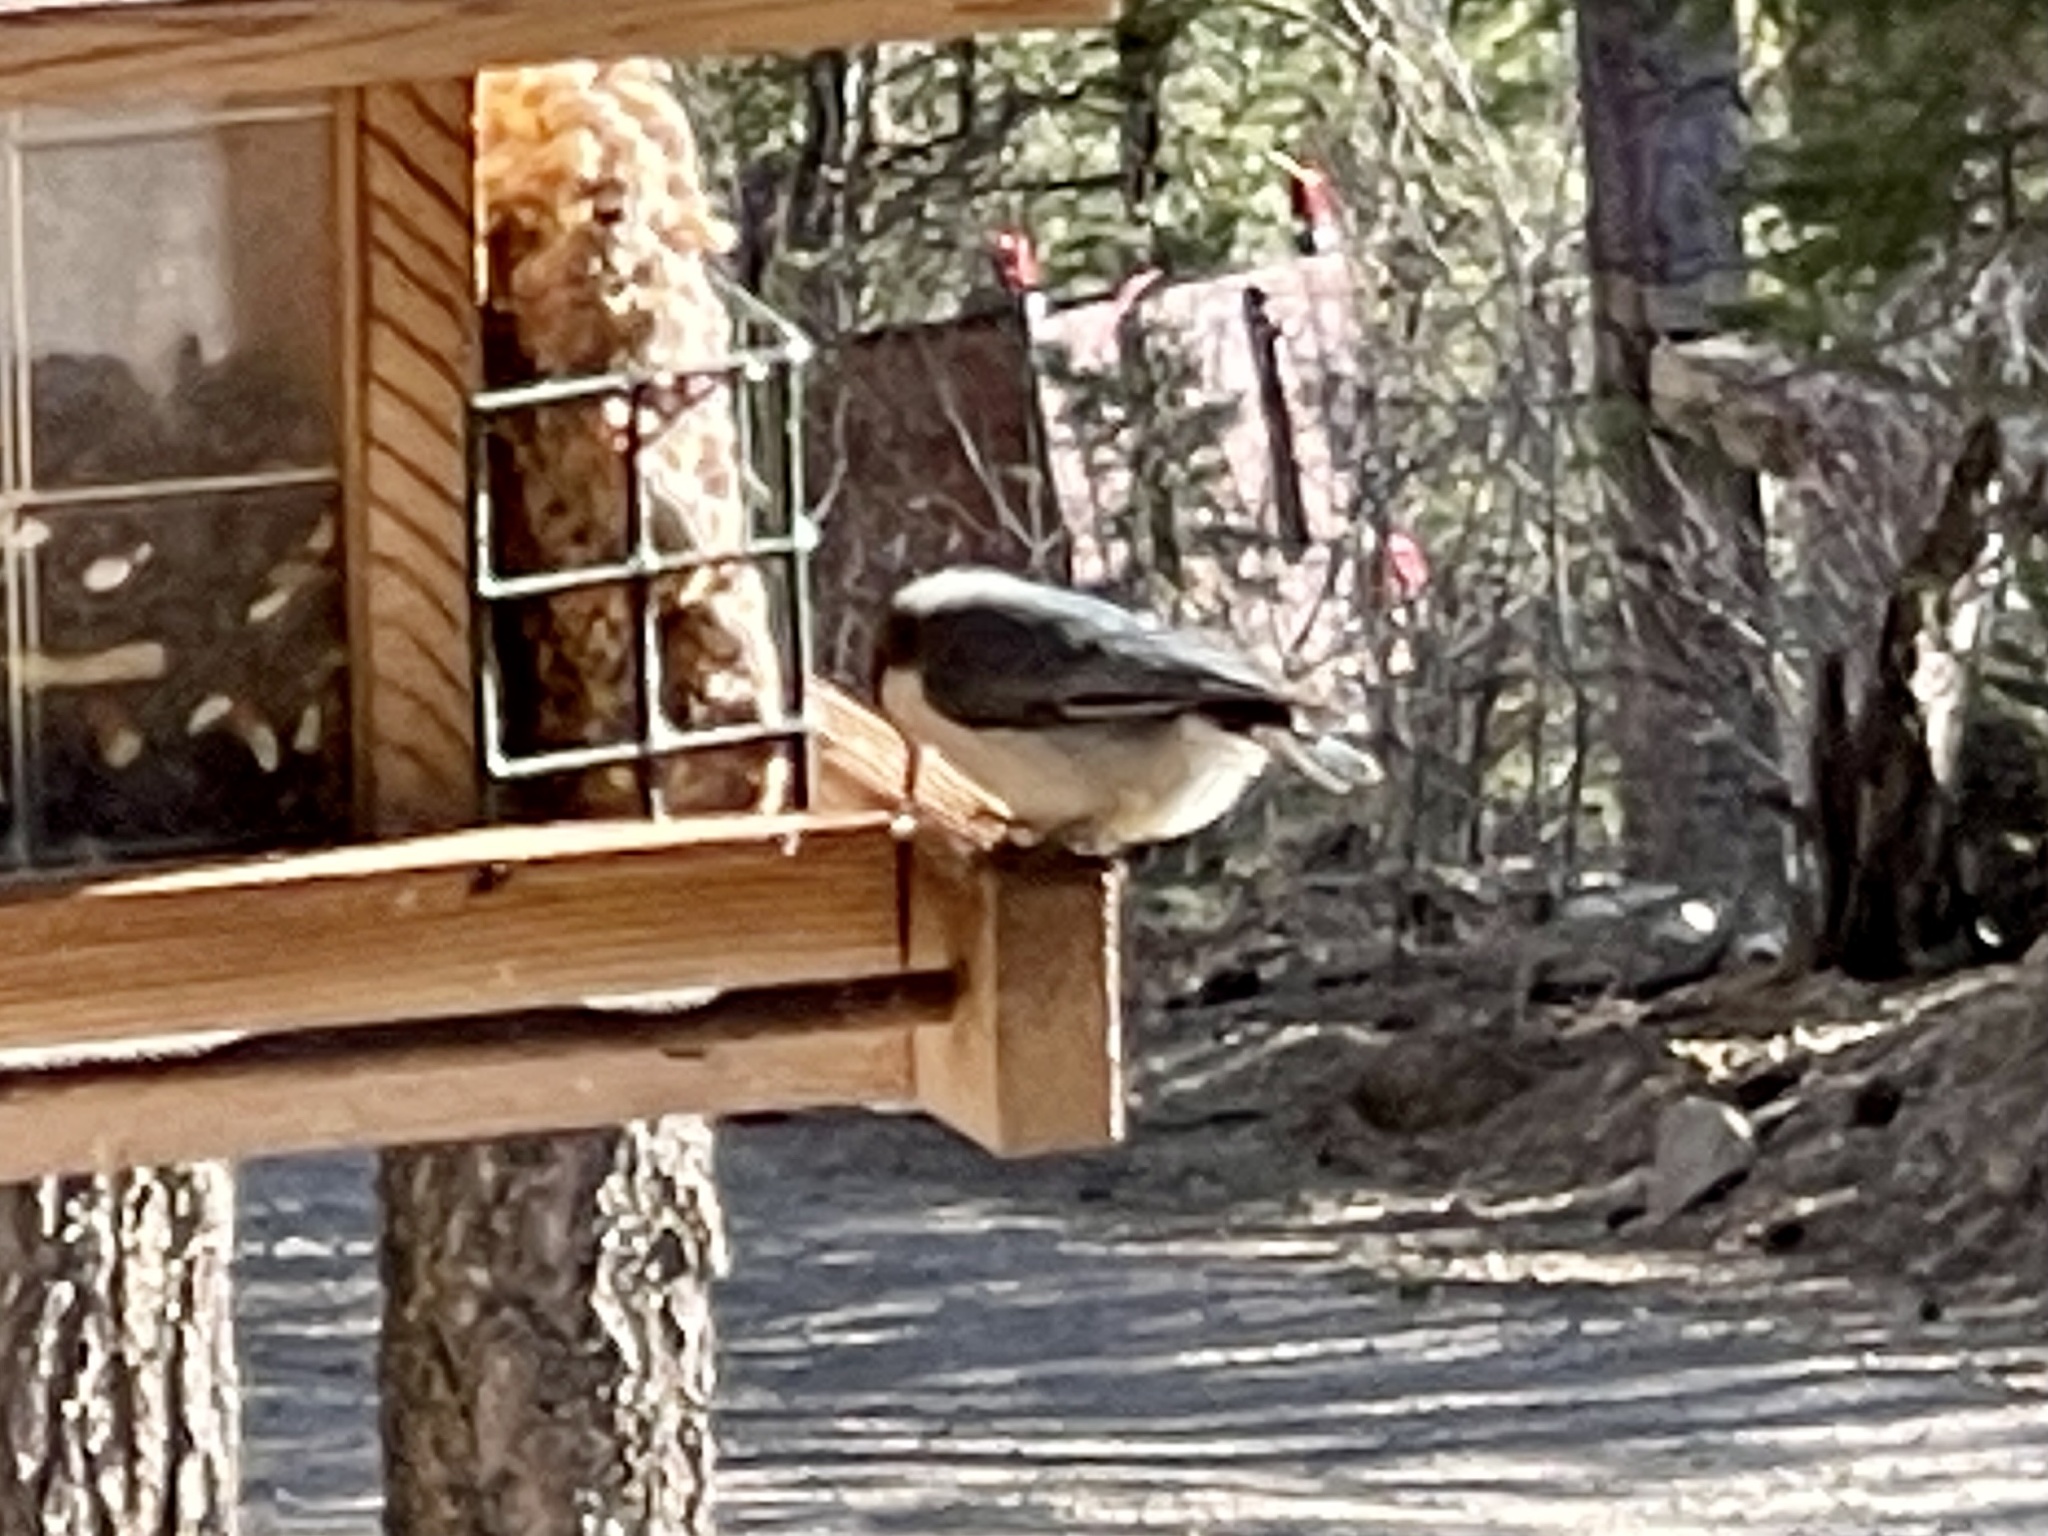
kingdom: Animalia
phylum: Chordata
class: Aves
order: Passeriformes
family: Sittidae
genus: Sitta
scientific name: Sitta pygmaea
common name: Pygmy nuthatch
